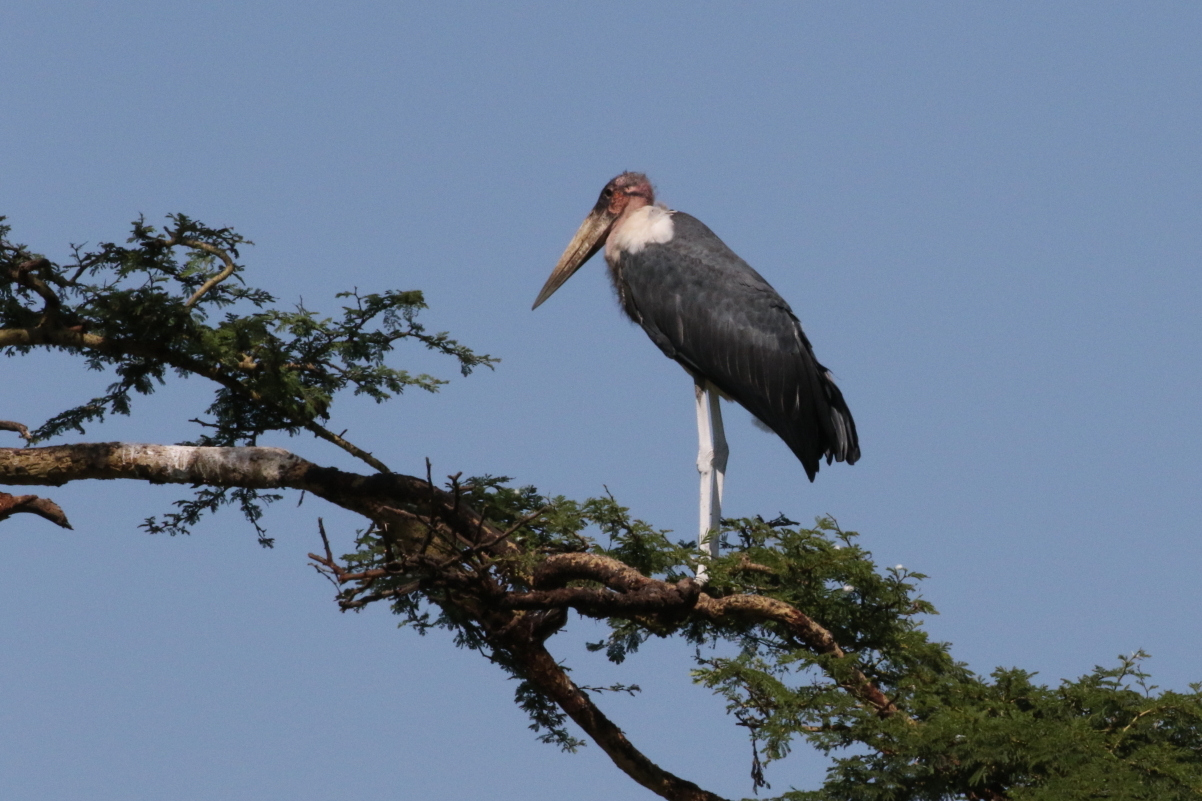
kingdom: Animalia
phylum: Chordata
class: Aves
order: Ciconiiformes
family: Ciconiidae
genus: Leptoptilos
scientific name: Leptoptilos crumenifer
